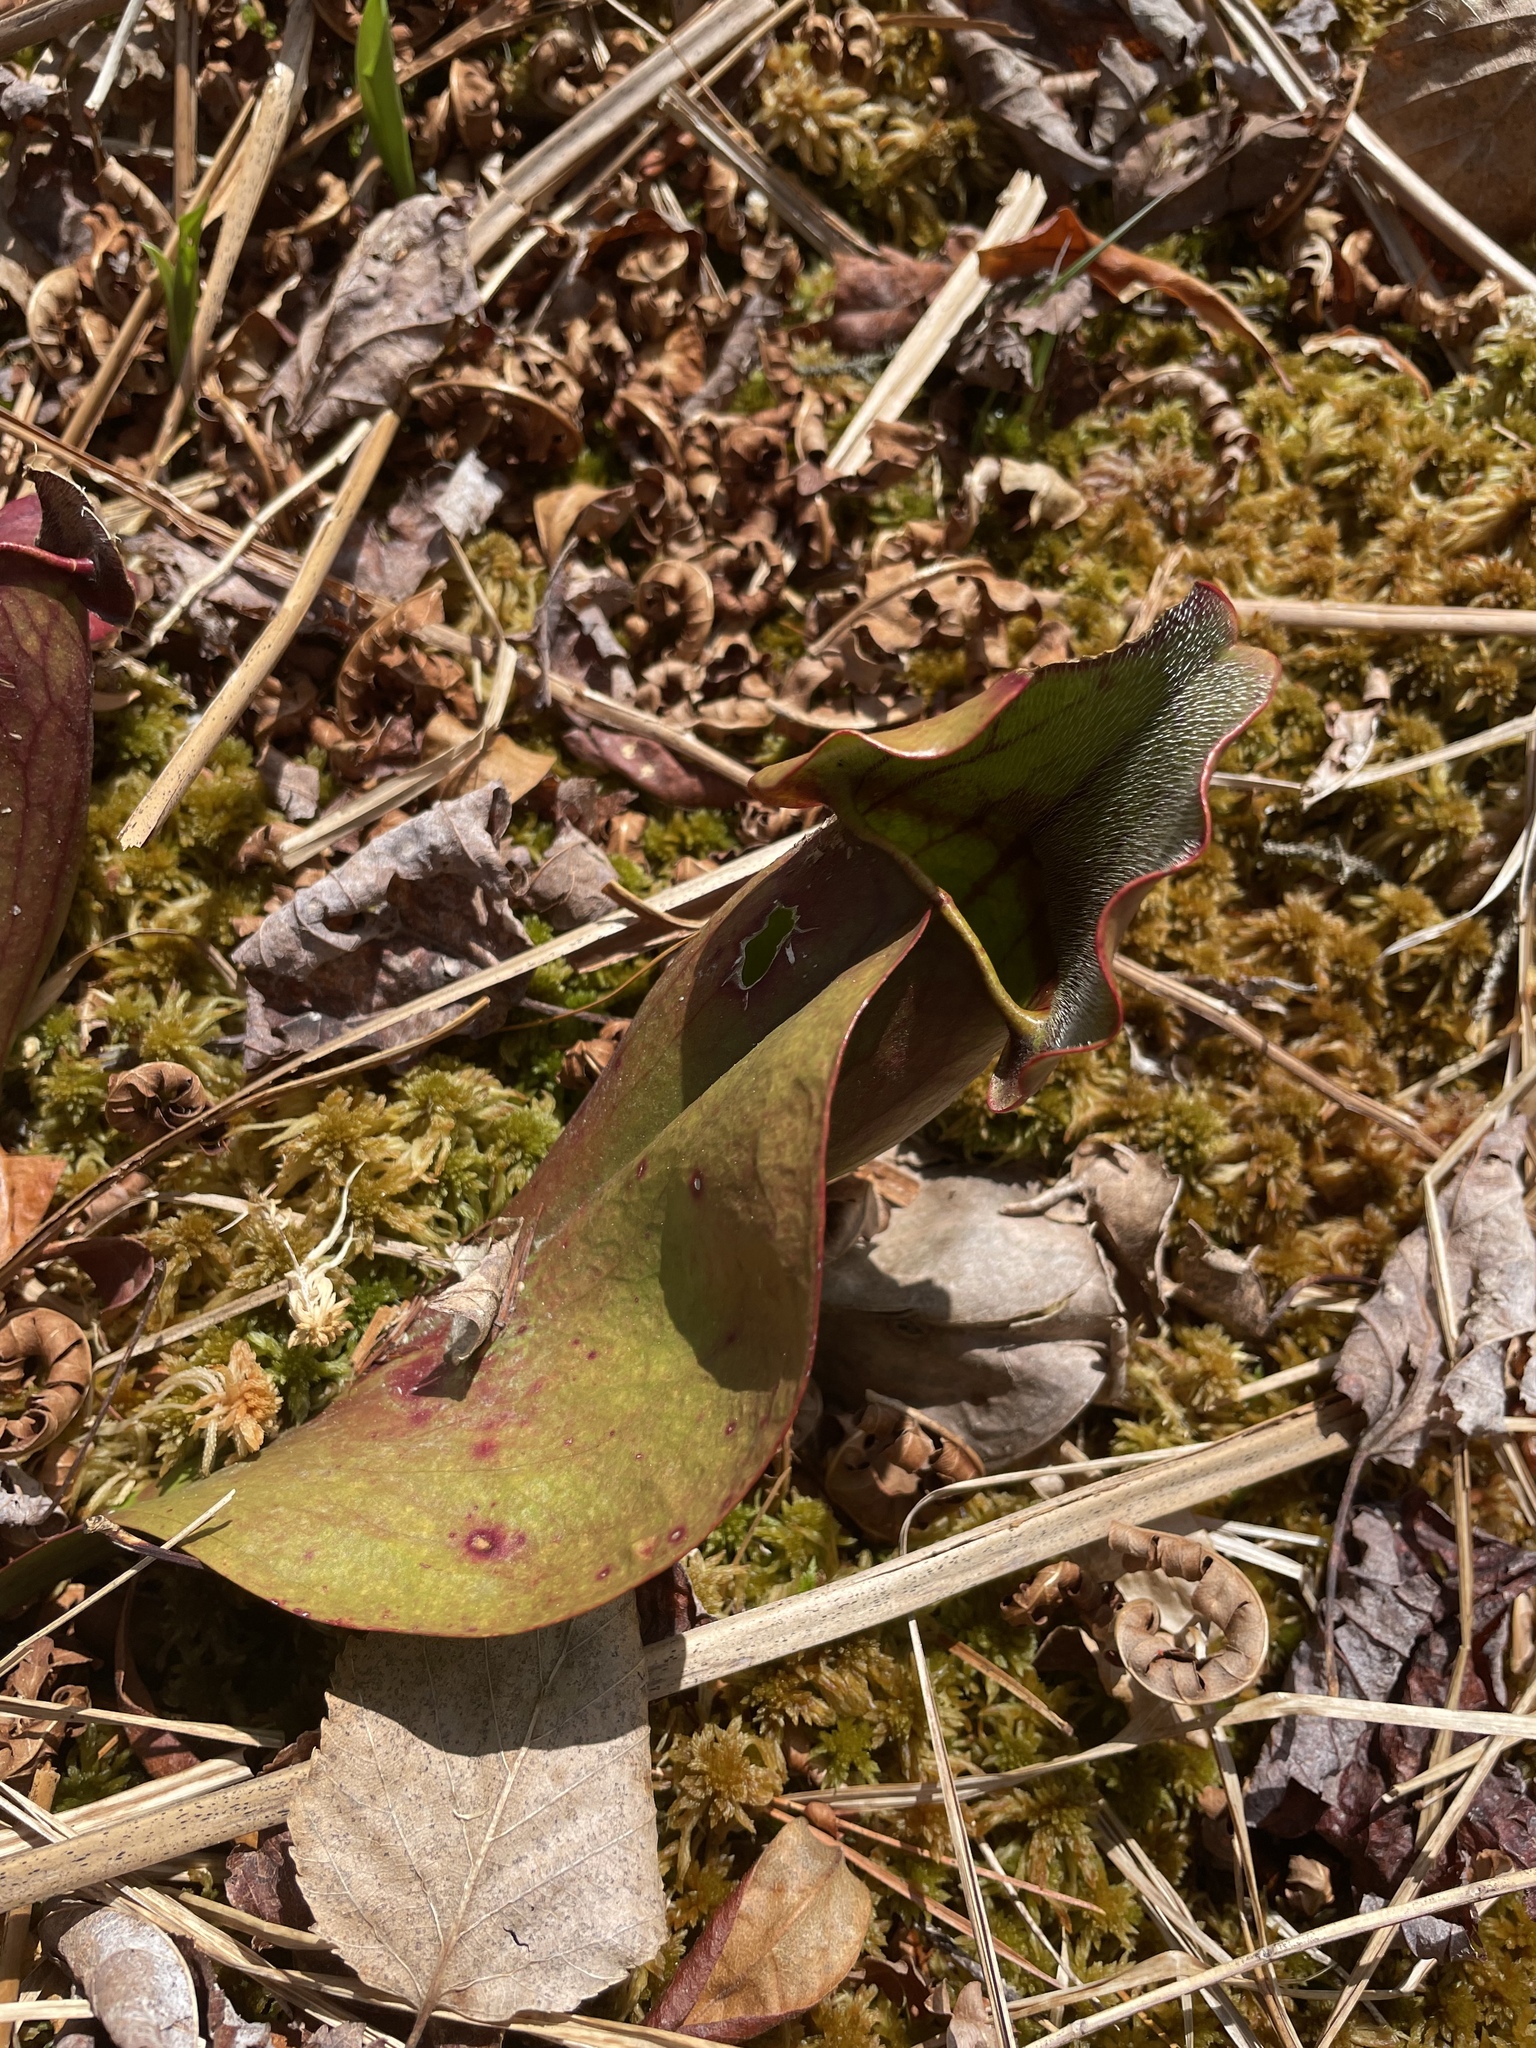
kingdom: Plantae
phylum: Tracheophyta
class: Magnoliopsida
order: Ericales
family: Sarraceniaceae
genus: Sarracenia
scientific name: Sarracenia purpurea
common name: Pitcherplant
